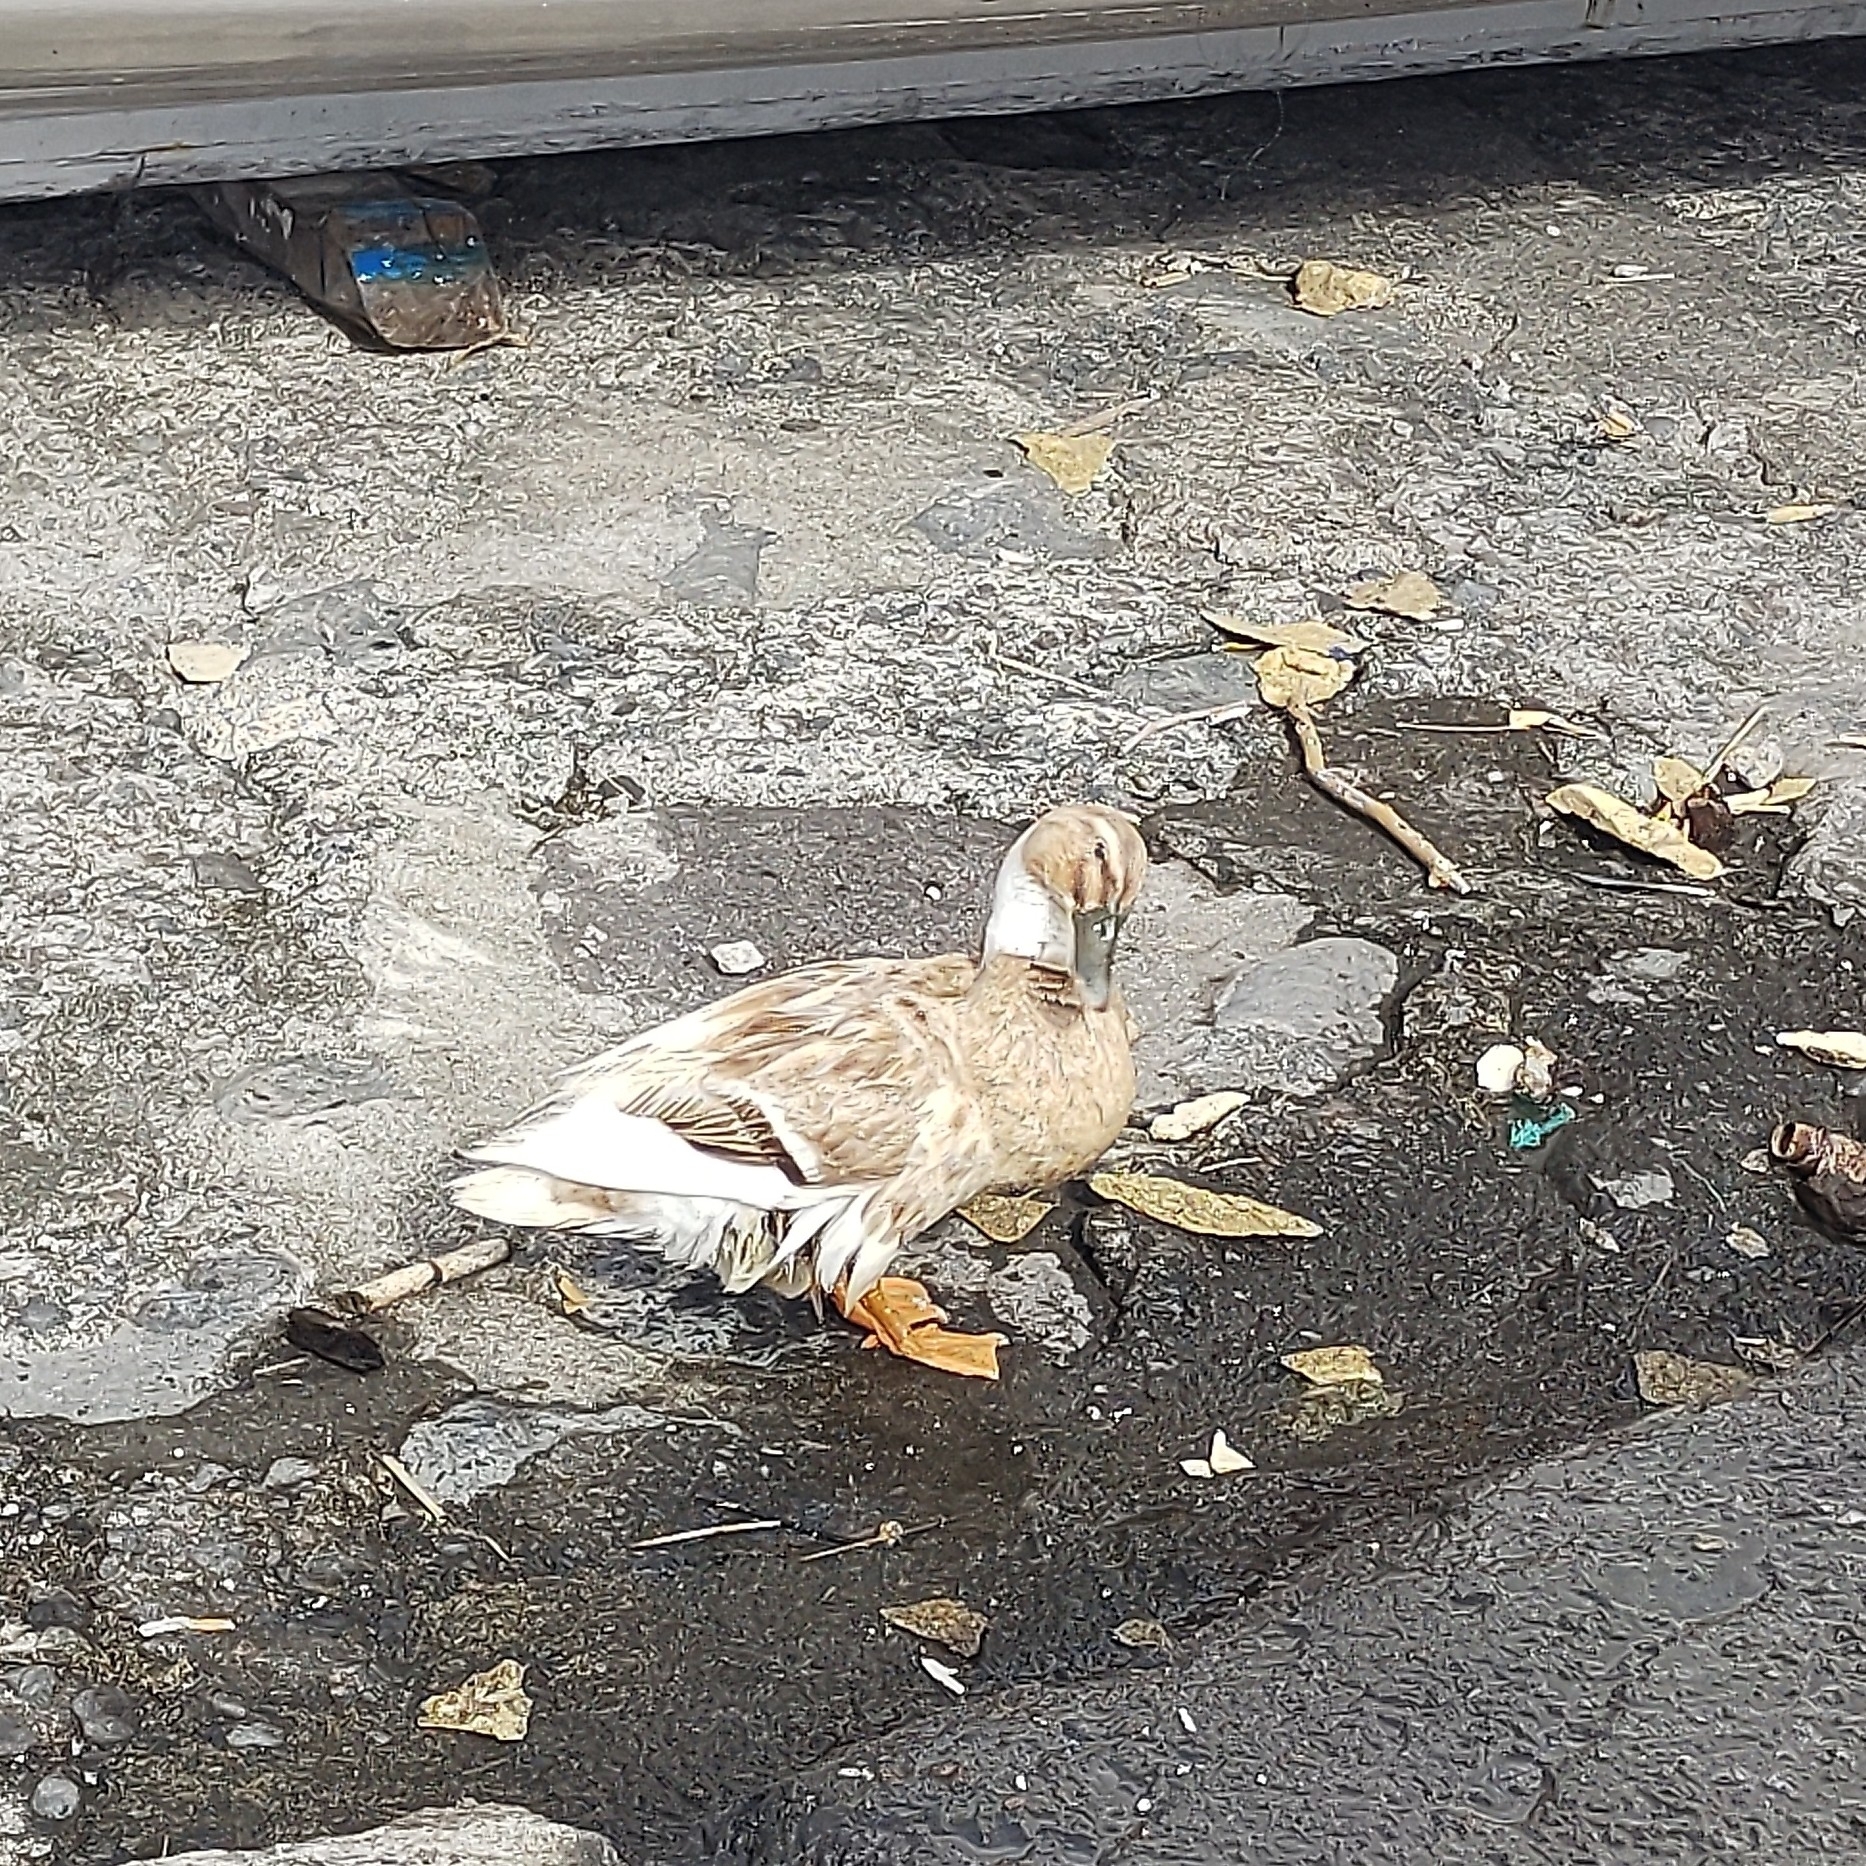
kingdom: Animalia
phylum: Chordata
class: Aves
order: Anseriformes
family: Anatidae
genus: Anas
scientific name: Anas platyrhynchos
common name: Mallard
